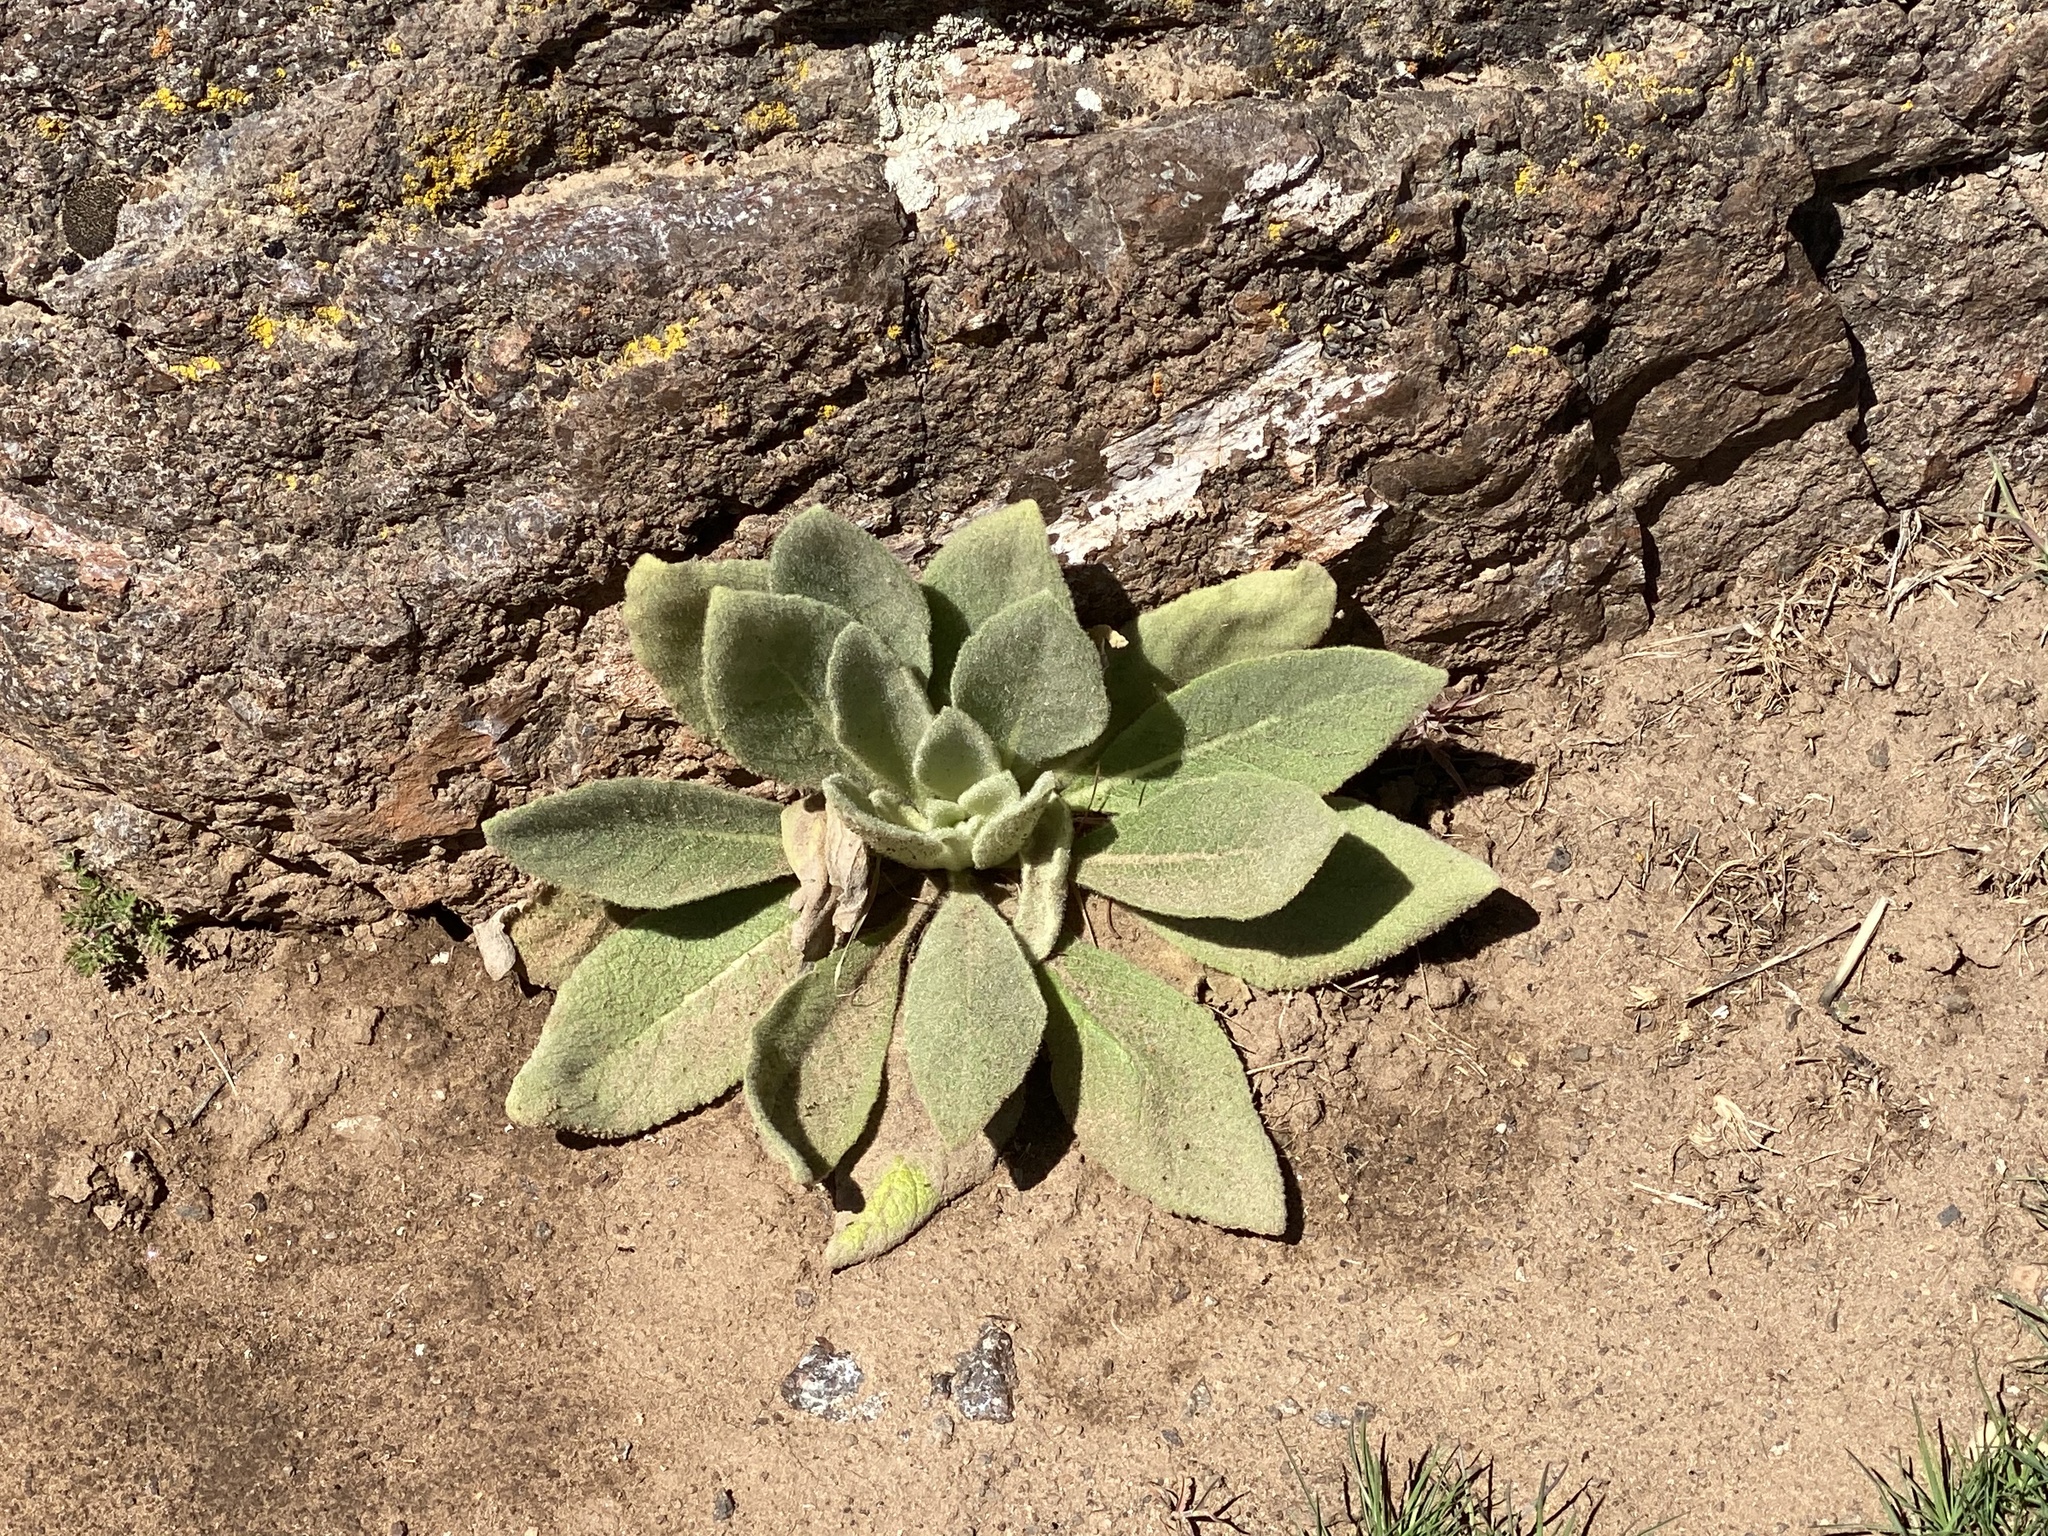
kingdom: Plantae
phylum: Tracheophyta
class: Magnoliopsida
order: Lamiales
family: Scrophulariaceae
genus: Verbascum
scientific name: Verbascum thapsus
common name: Common mullein
